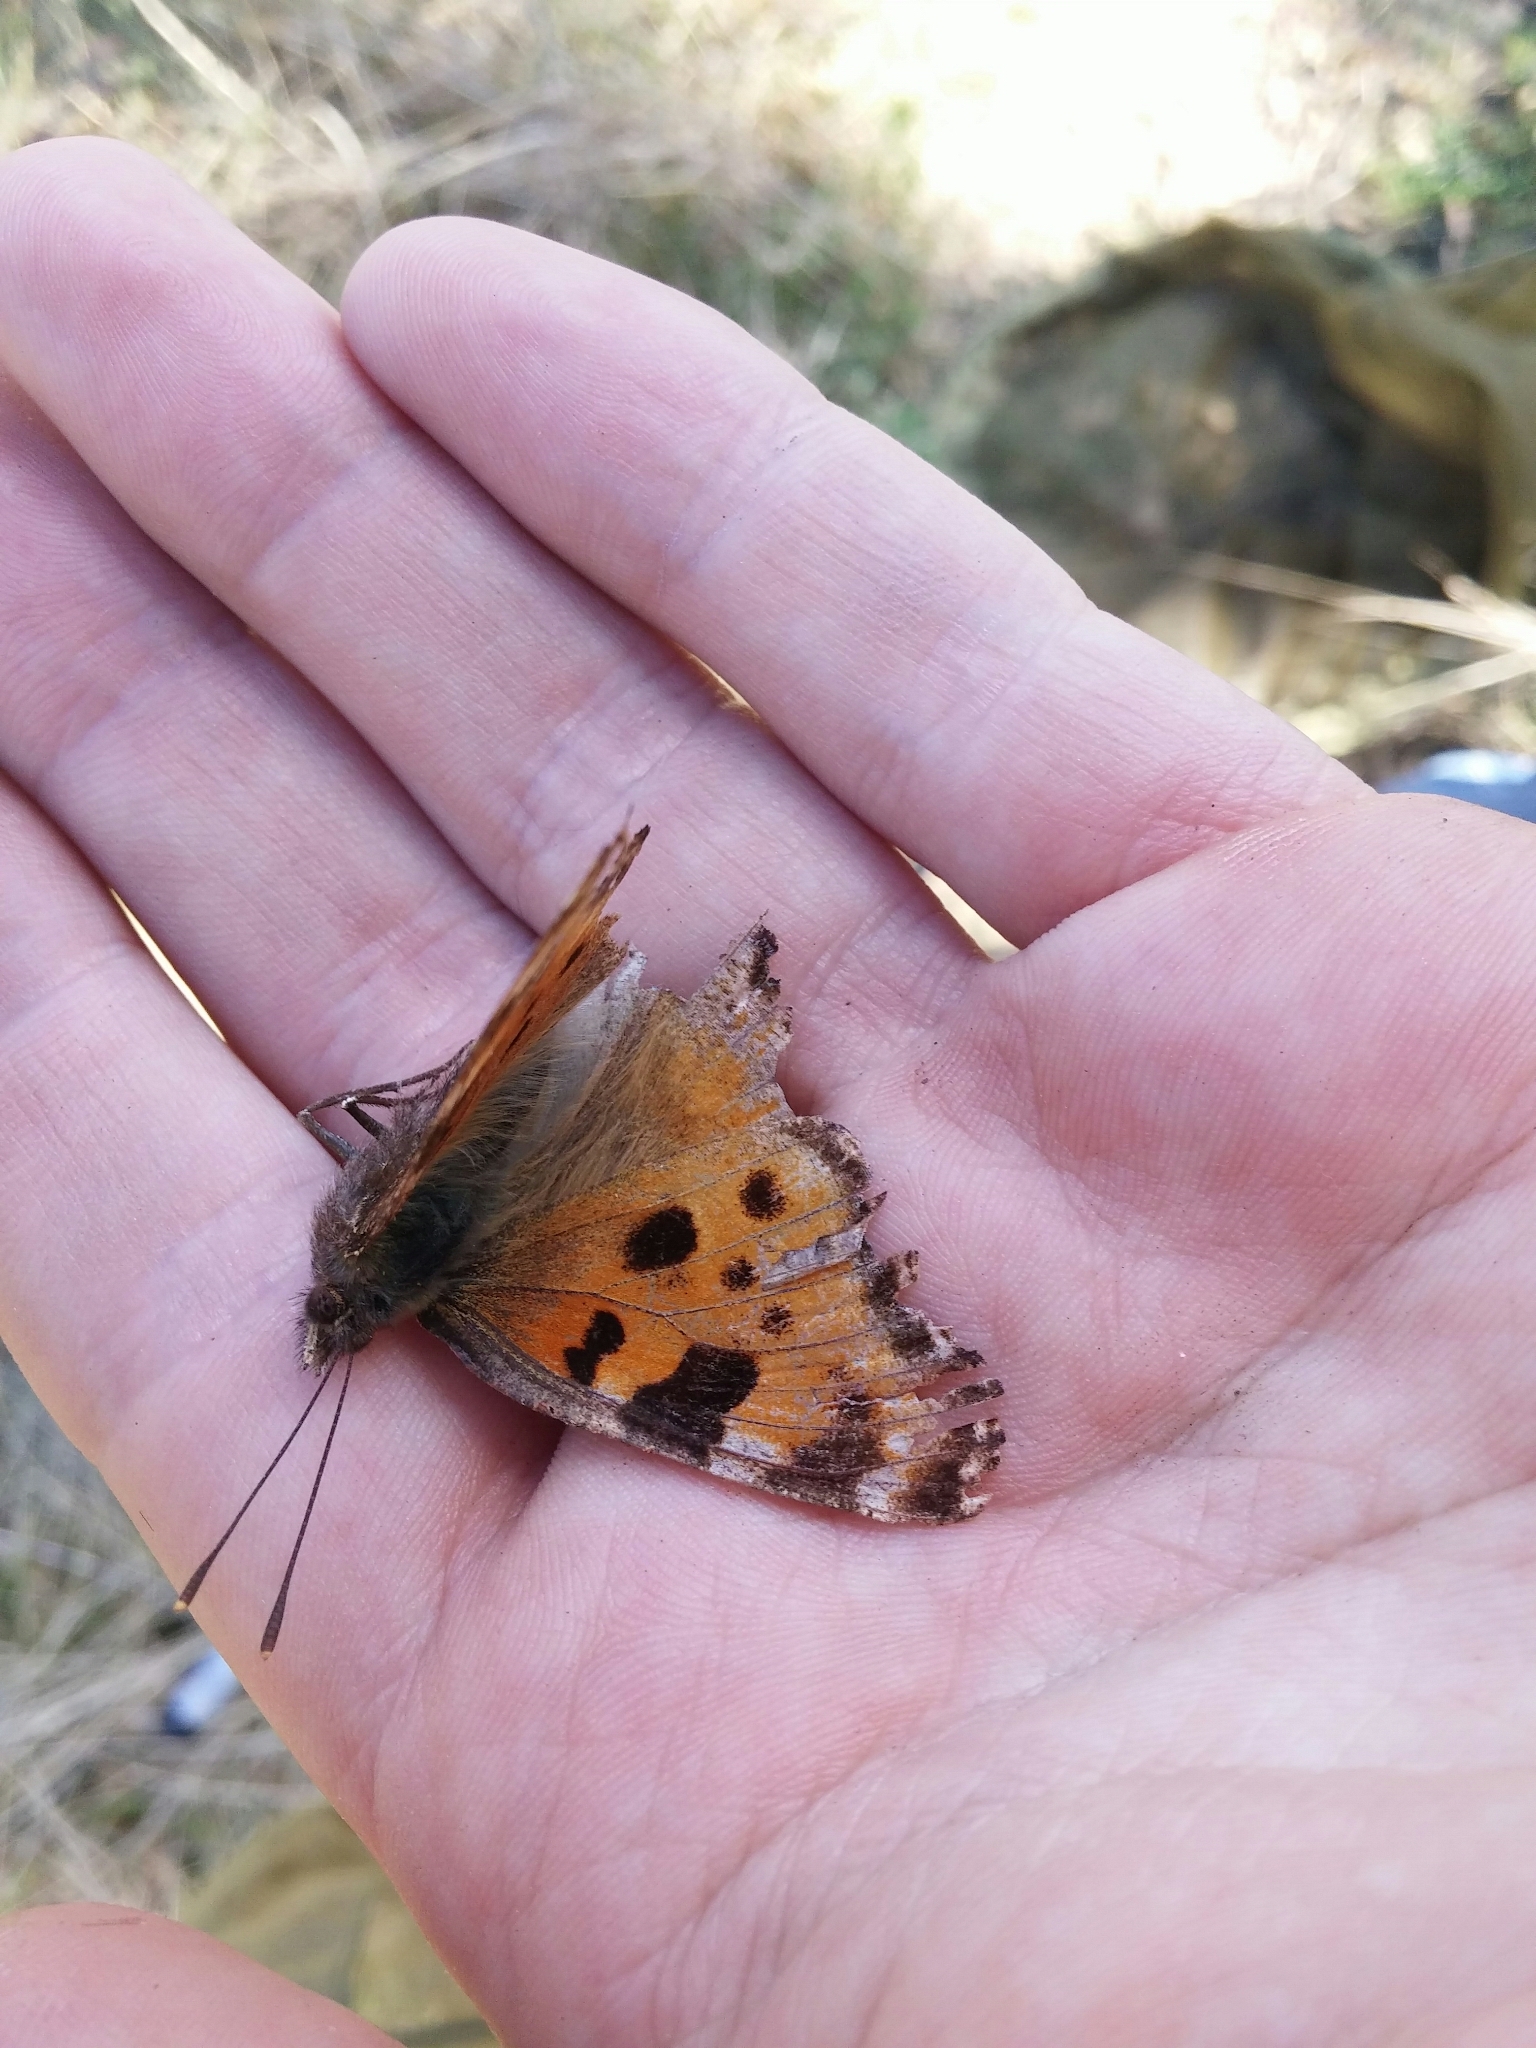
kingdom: Animalia
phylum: Arthropoda
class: Insecta
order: Lepidoptera
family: Nymphalidae
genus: Nymphalis
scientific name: Nymphalis polychloros
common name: Large tortoiseshell
